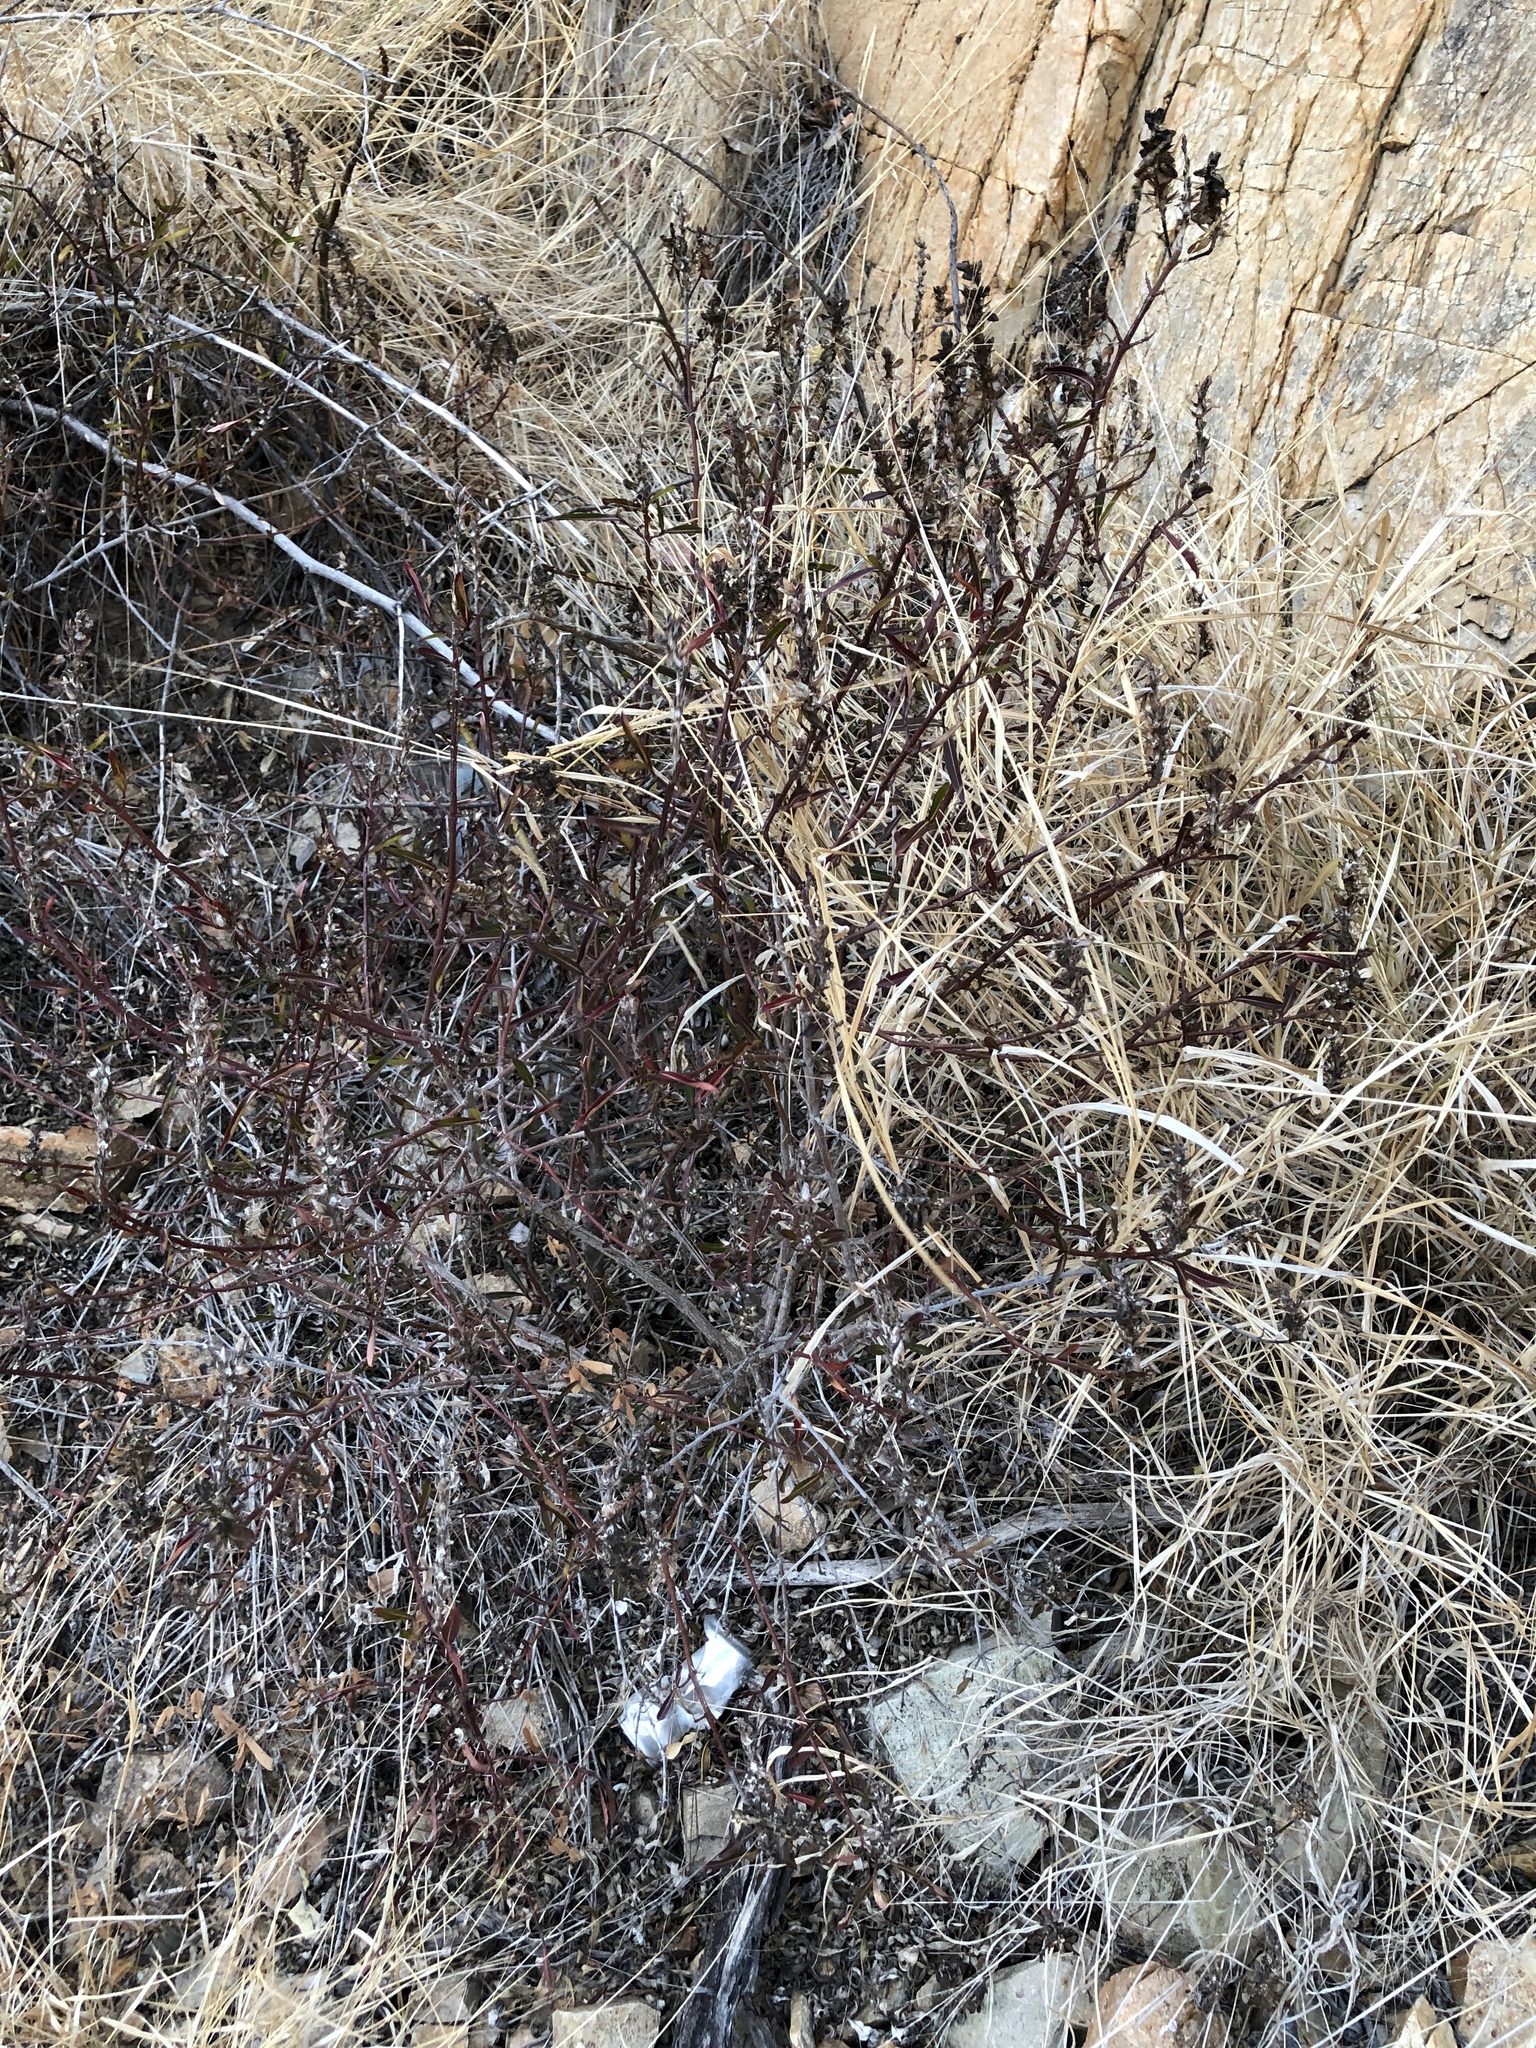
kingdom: Plantae
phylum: Tracheophyta
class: Magnoliopsida
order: Lamiales
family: Acanthaceae
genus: Barleria
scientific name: Barleria lupulina
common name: Hophead philippine violet
